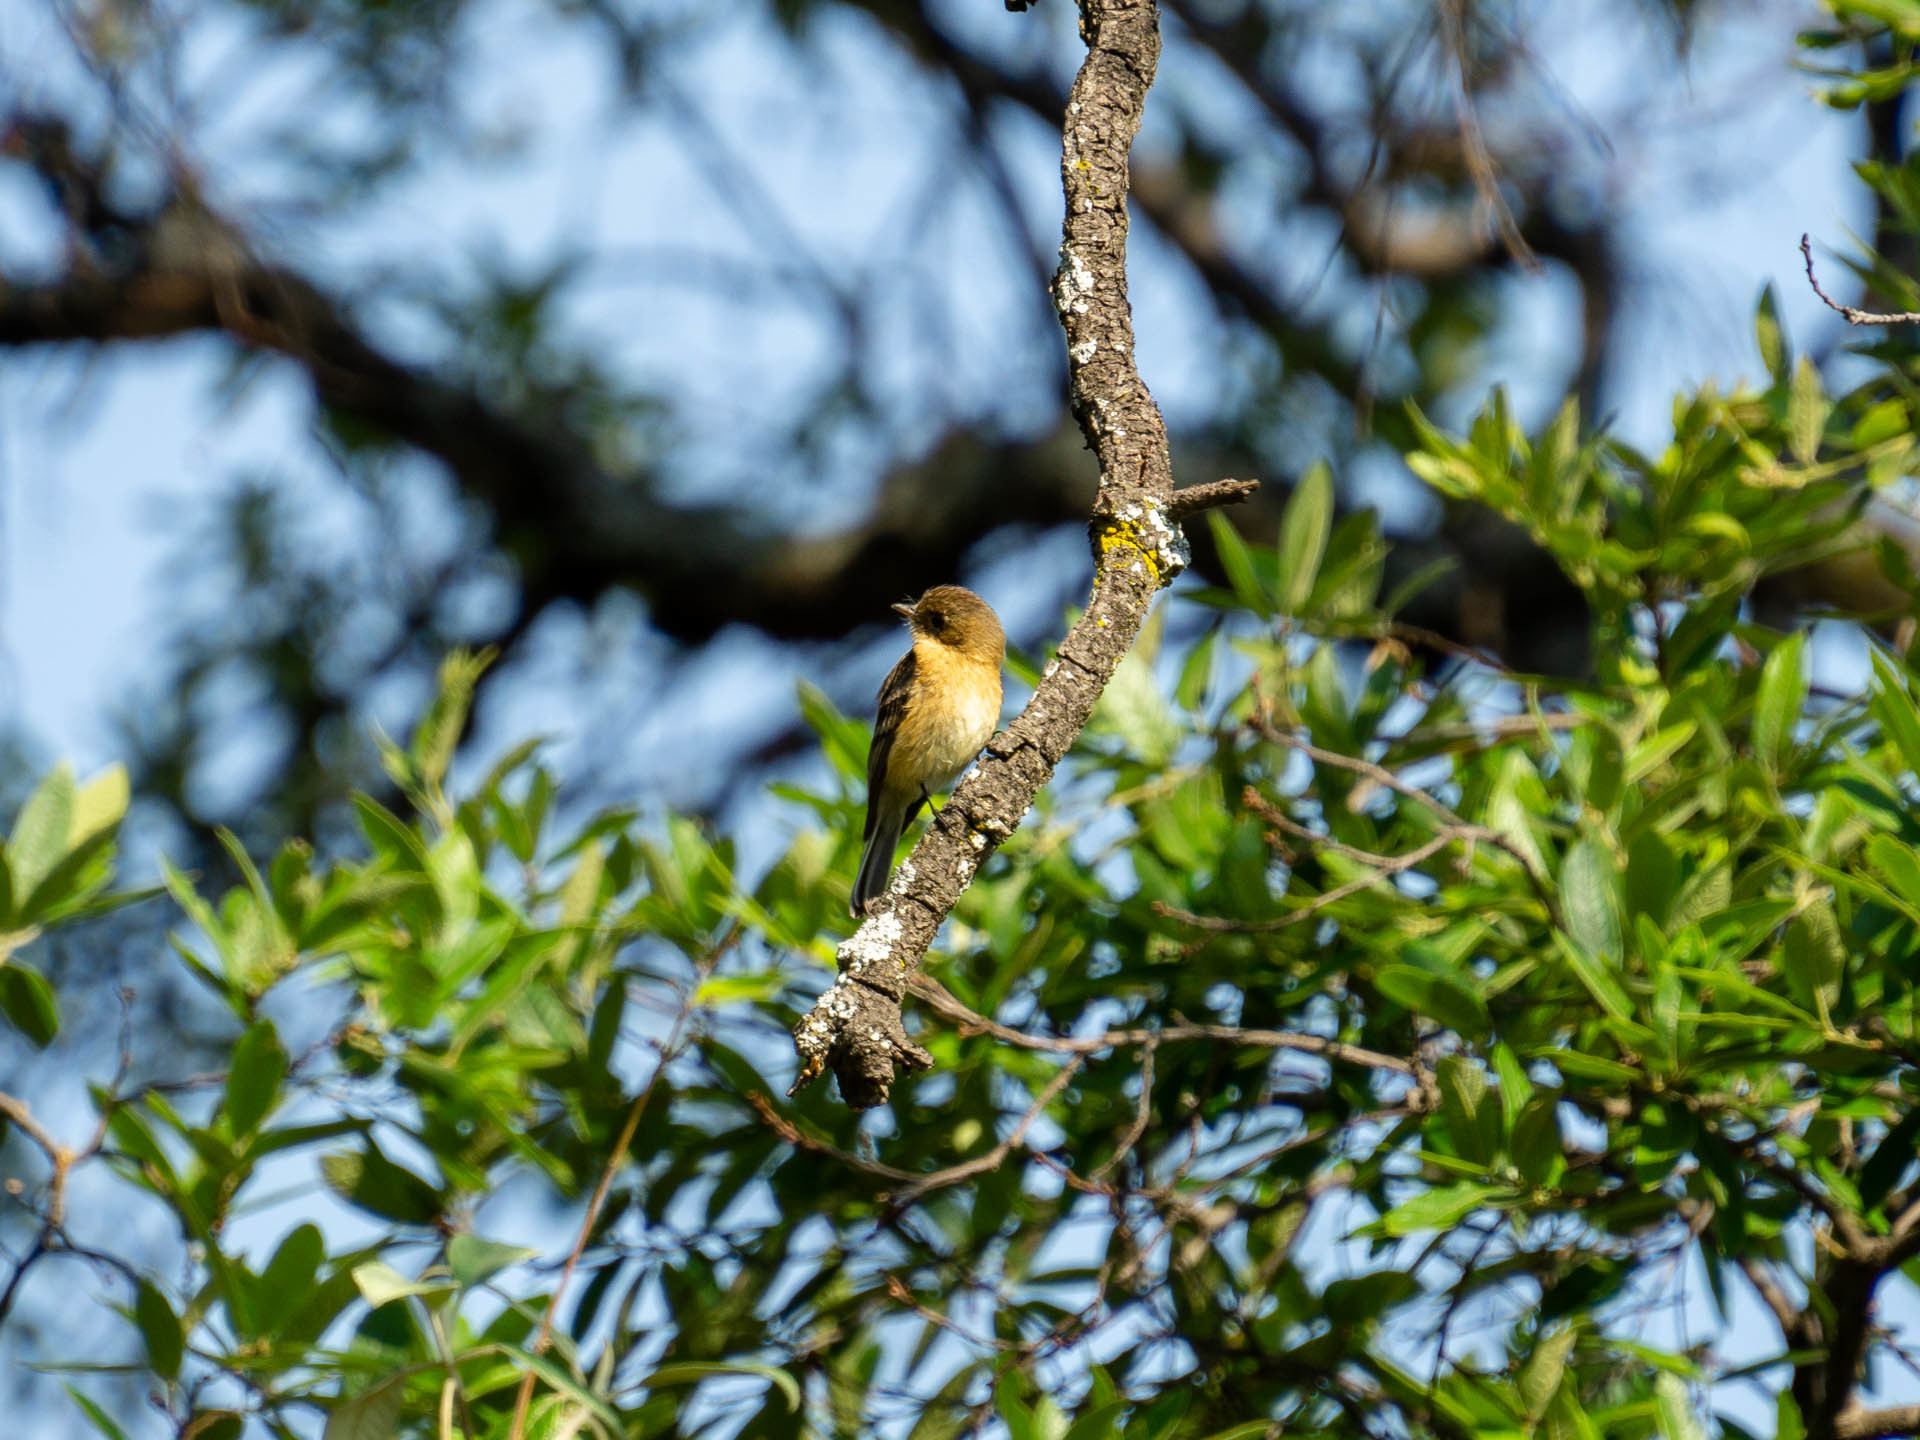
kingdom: Animalia
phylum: Chordata
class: Aves
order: Passeriformes
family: Tyrannidae
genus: Empidonax
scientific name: Empidonax fulvifrons
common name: Buff-breasted flycatcher
